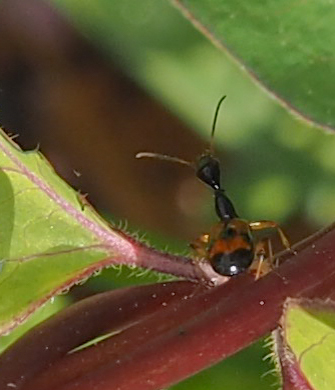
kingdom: Animalia
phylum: Arthropoda
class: Insecta
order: Coleoptera
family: Carabidae
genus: Colliuris
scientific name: Colliuris pensylvanica
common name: Long-necked ground beetle
